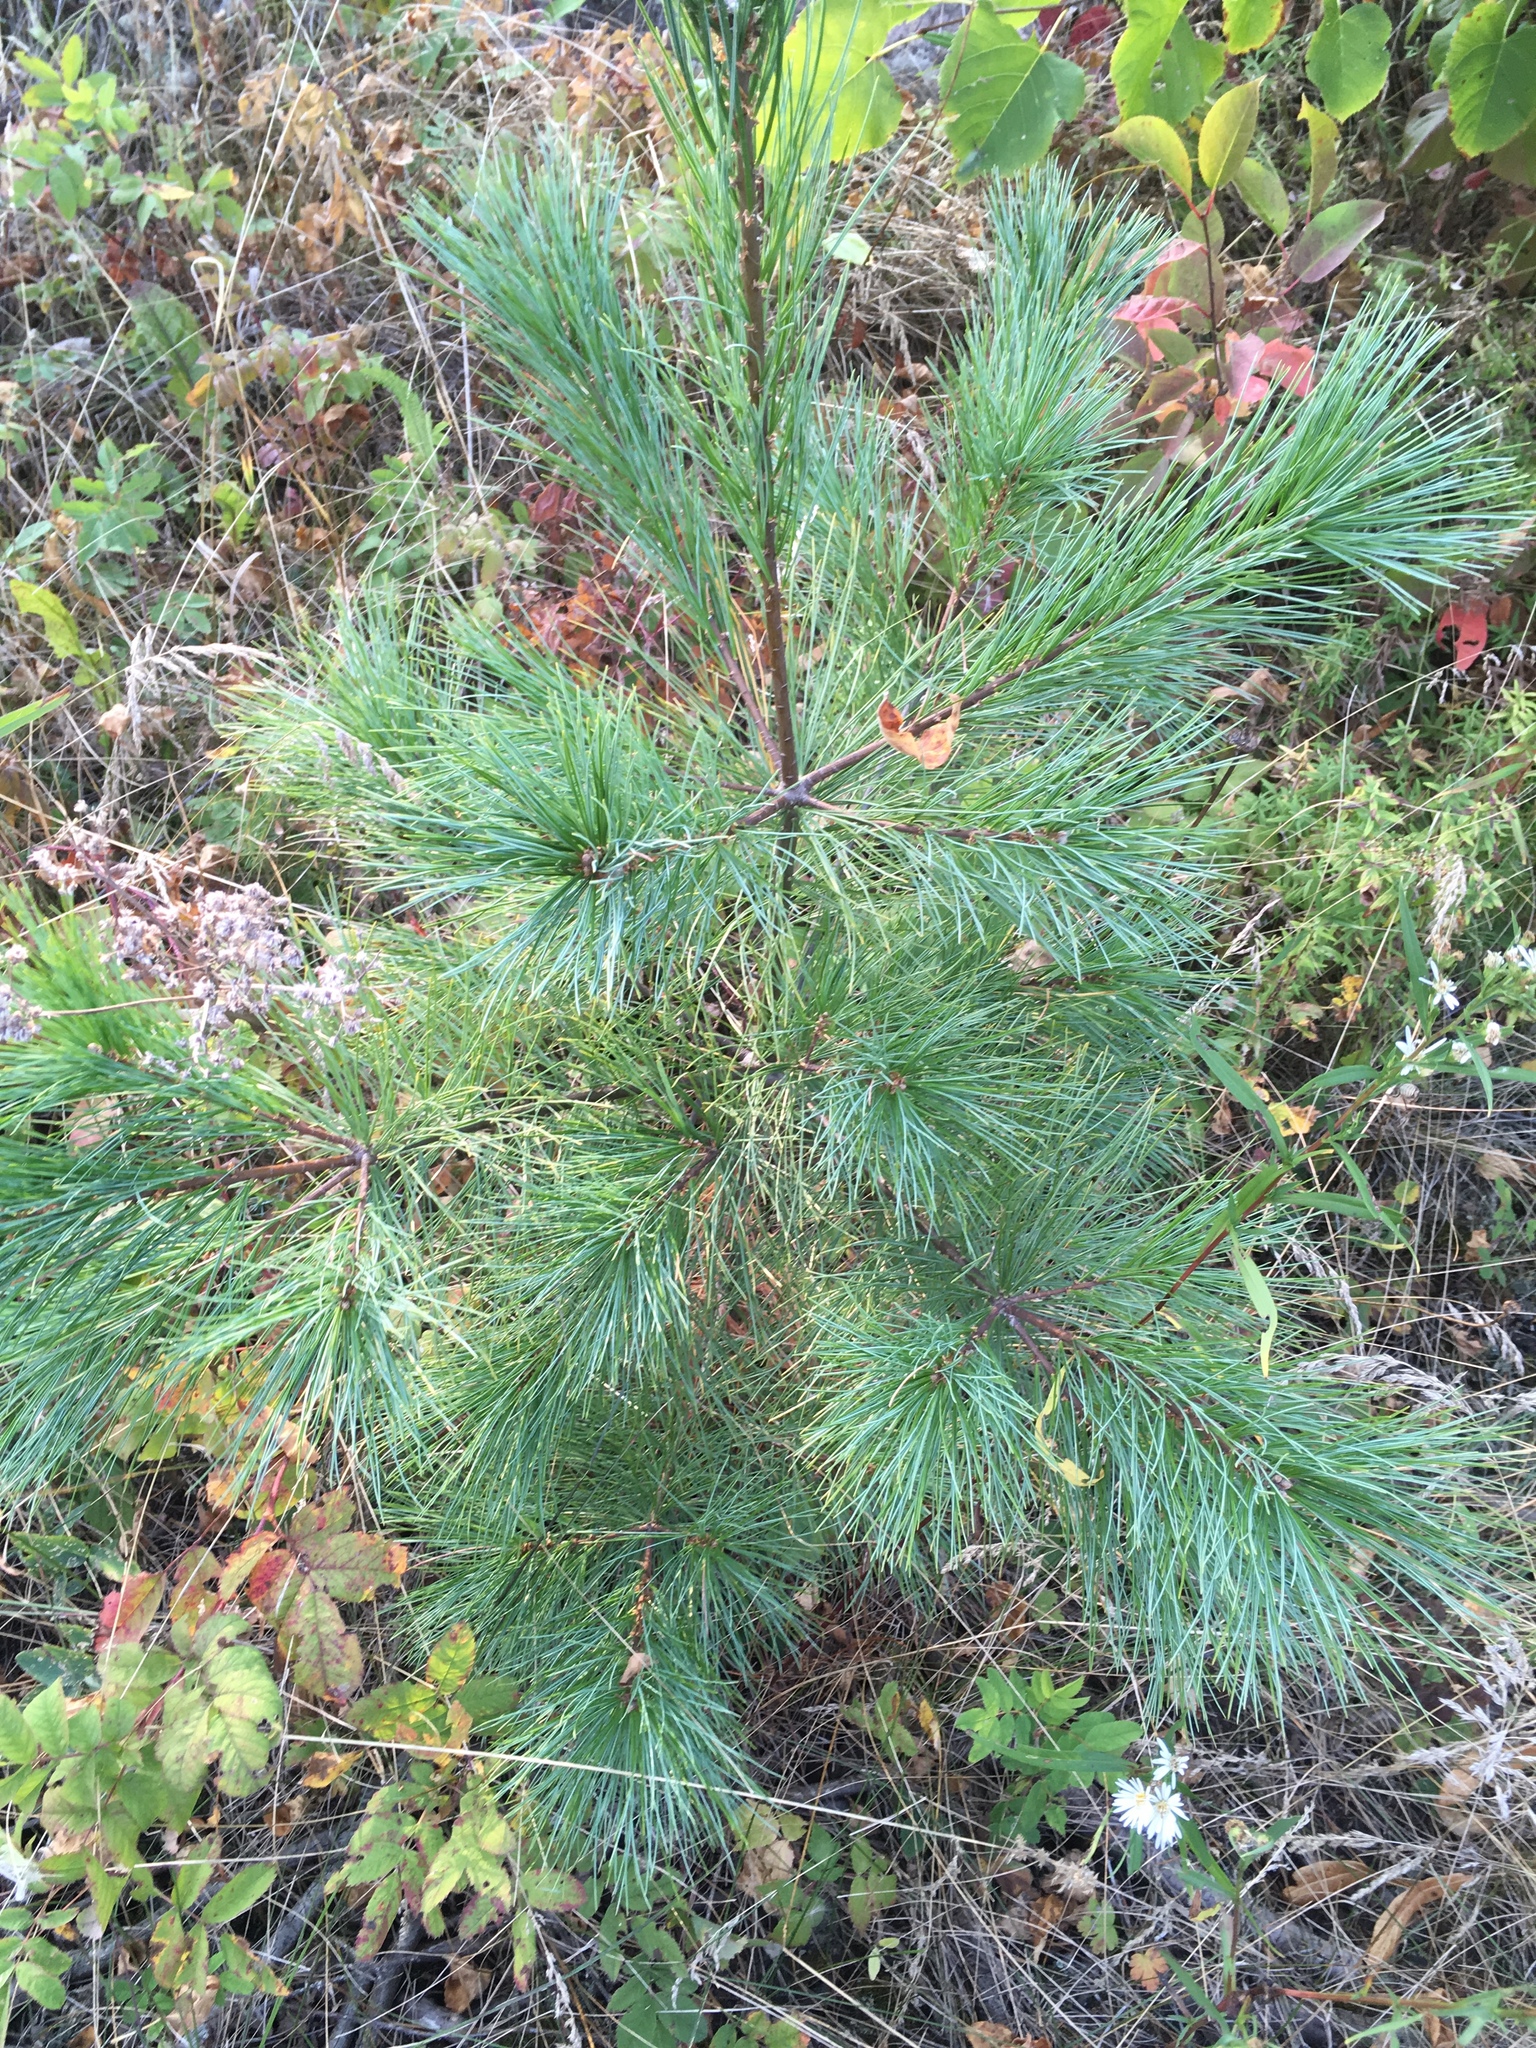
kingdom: Plantae
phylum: Tracheophyta
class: Pinopsida
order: Pinales
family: Pinaceae
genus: Pinus
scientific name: Pinus strobus
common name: Weymouth pine
